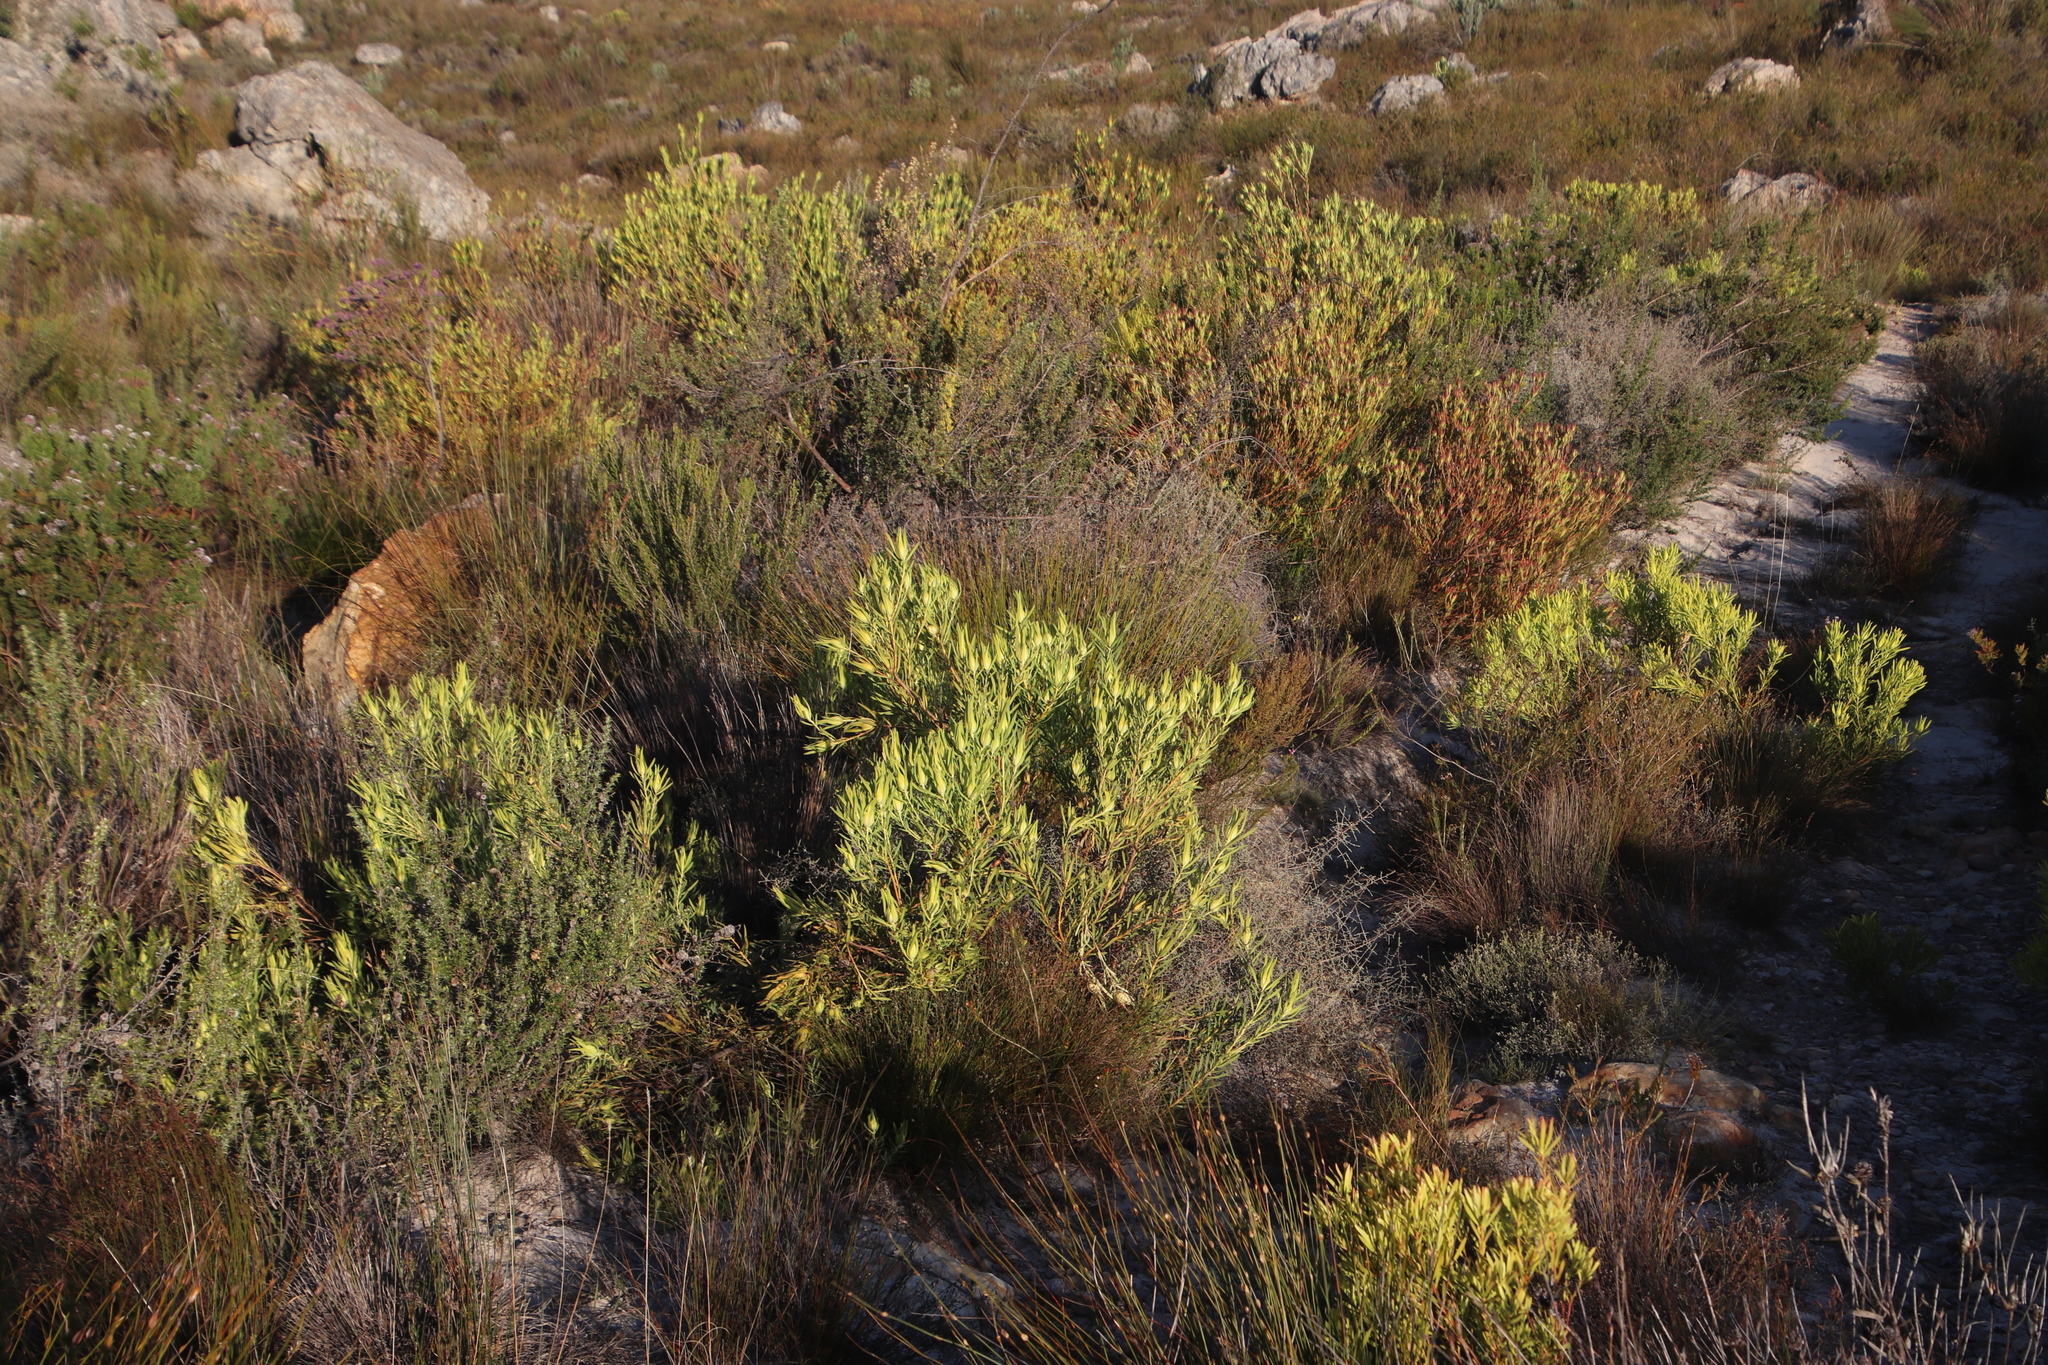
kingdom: Plantae
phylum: Tracheophyta
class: Magnoliopsida
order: Proteales
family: Proteaceae
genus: Leucadendron
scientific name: Leucadendron salignum
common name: Common sunshine conebush
